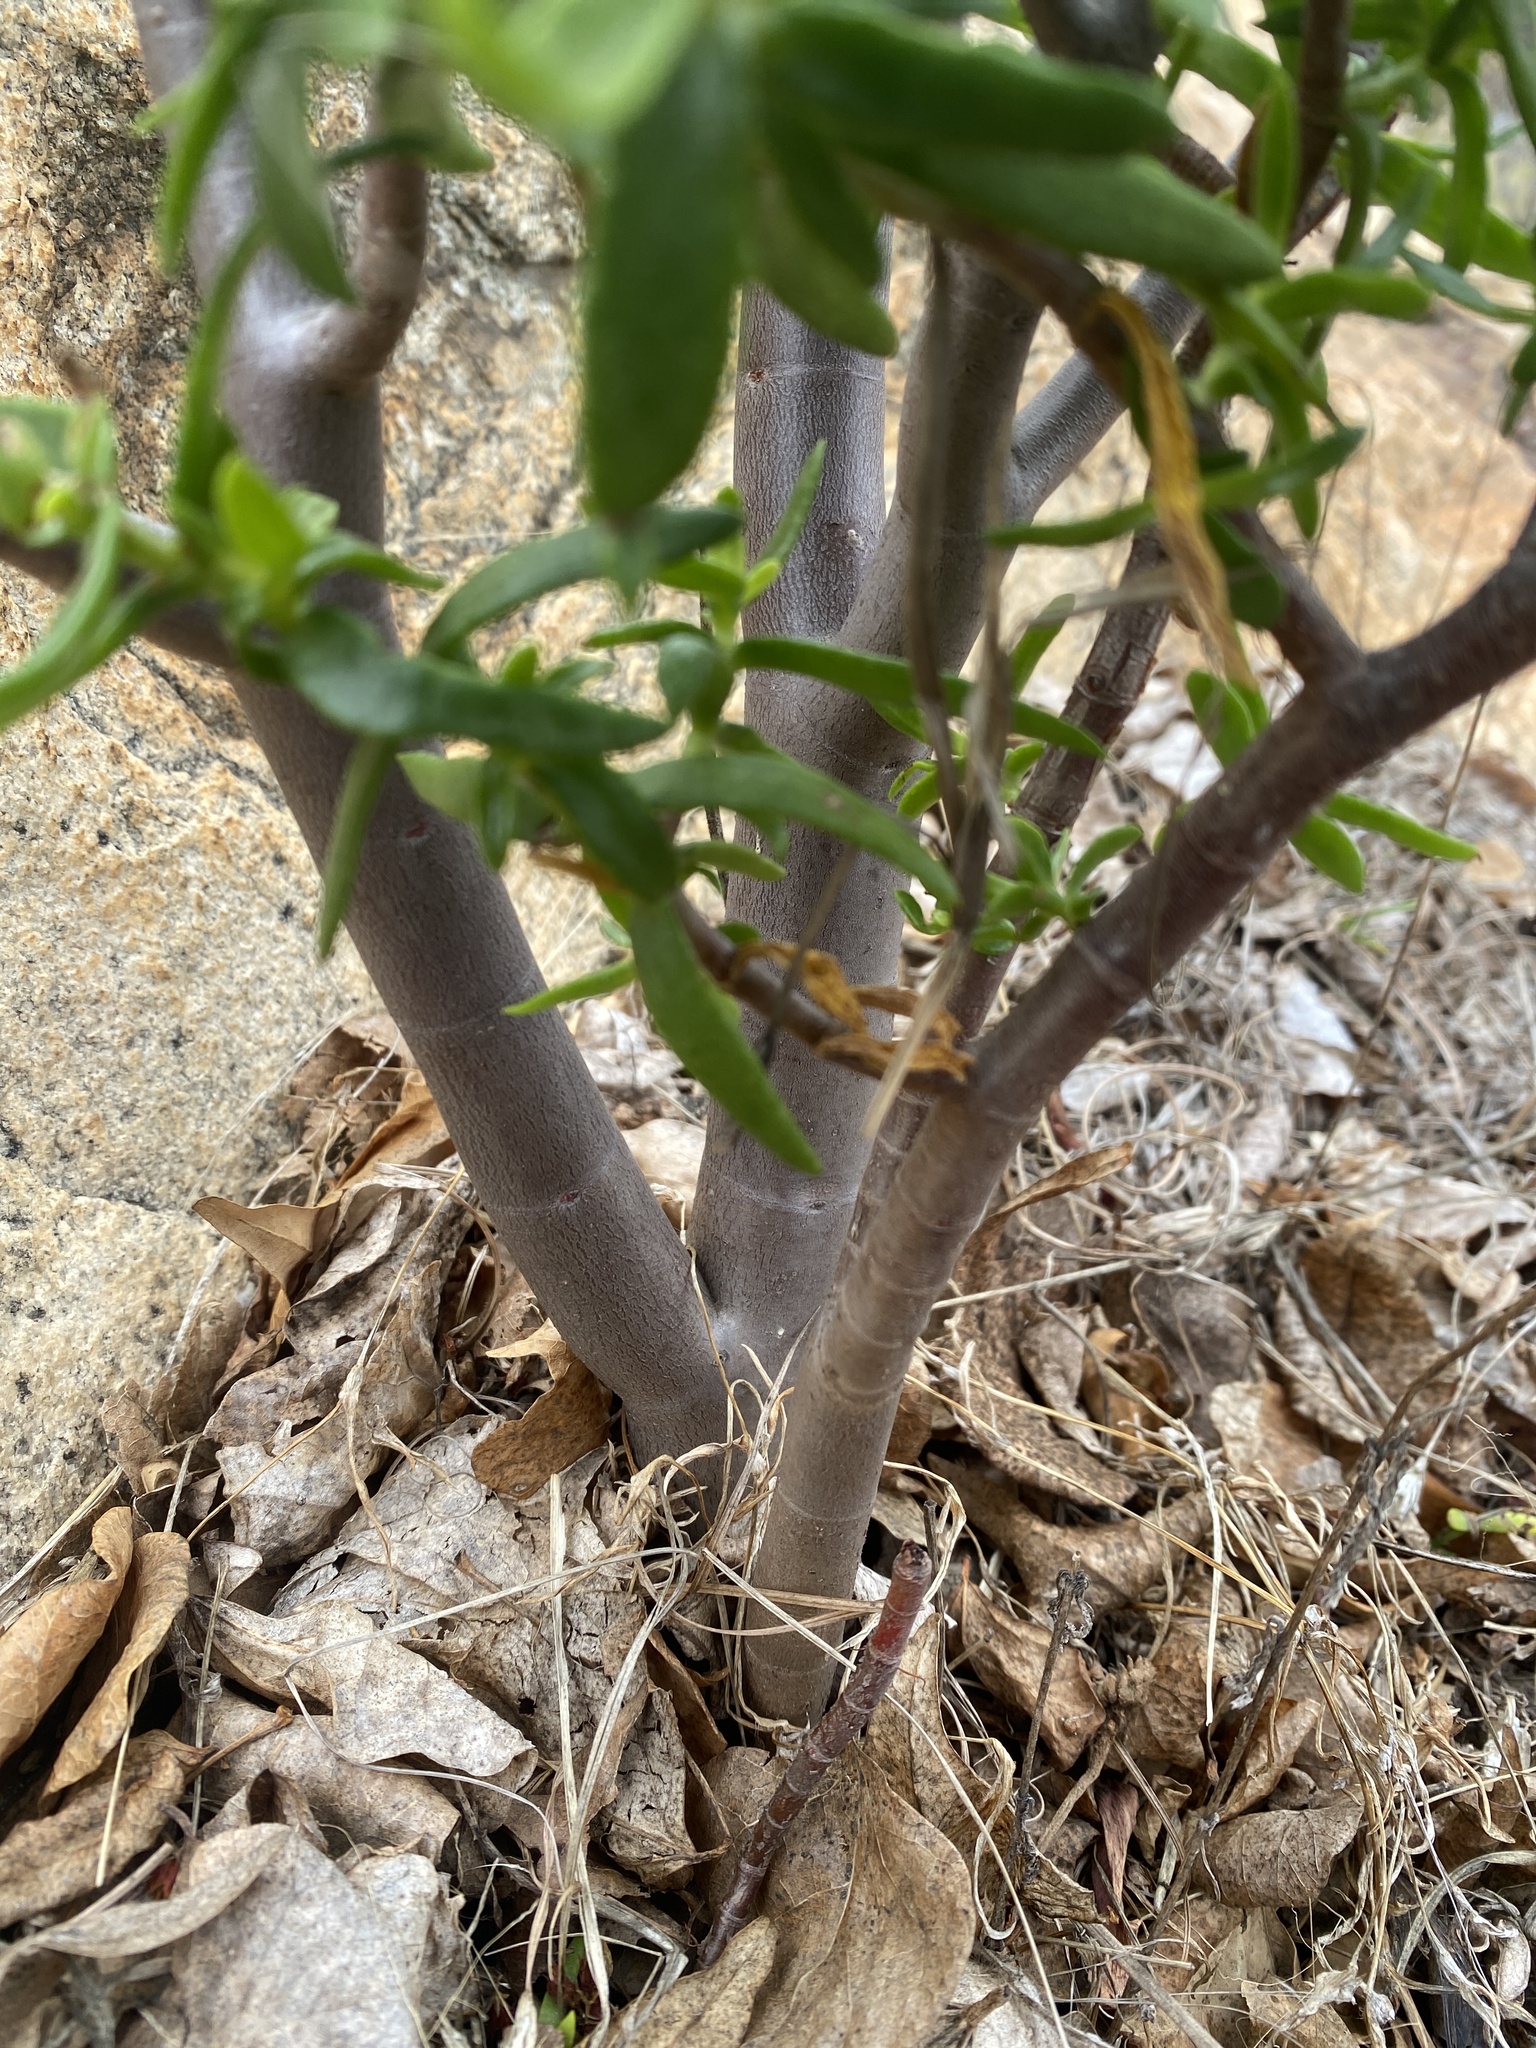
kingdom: Plantae
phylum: Tracheophyta
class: Magnoliopsida
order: Saxifragales
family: Crassulaceae
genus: Crassula
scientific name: Crassula sarcocaulis
